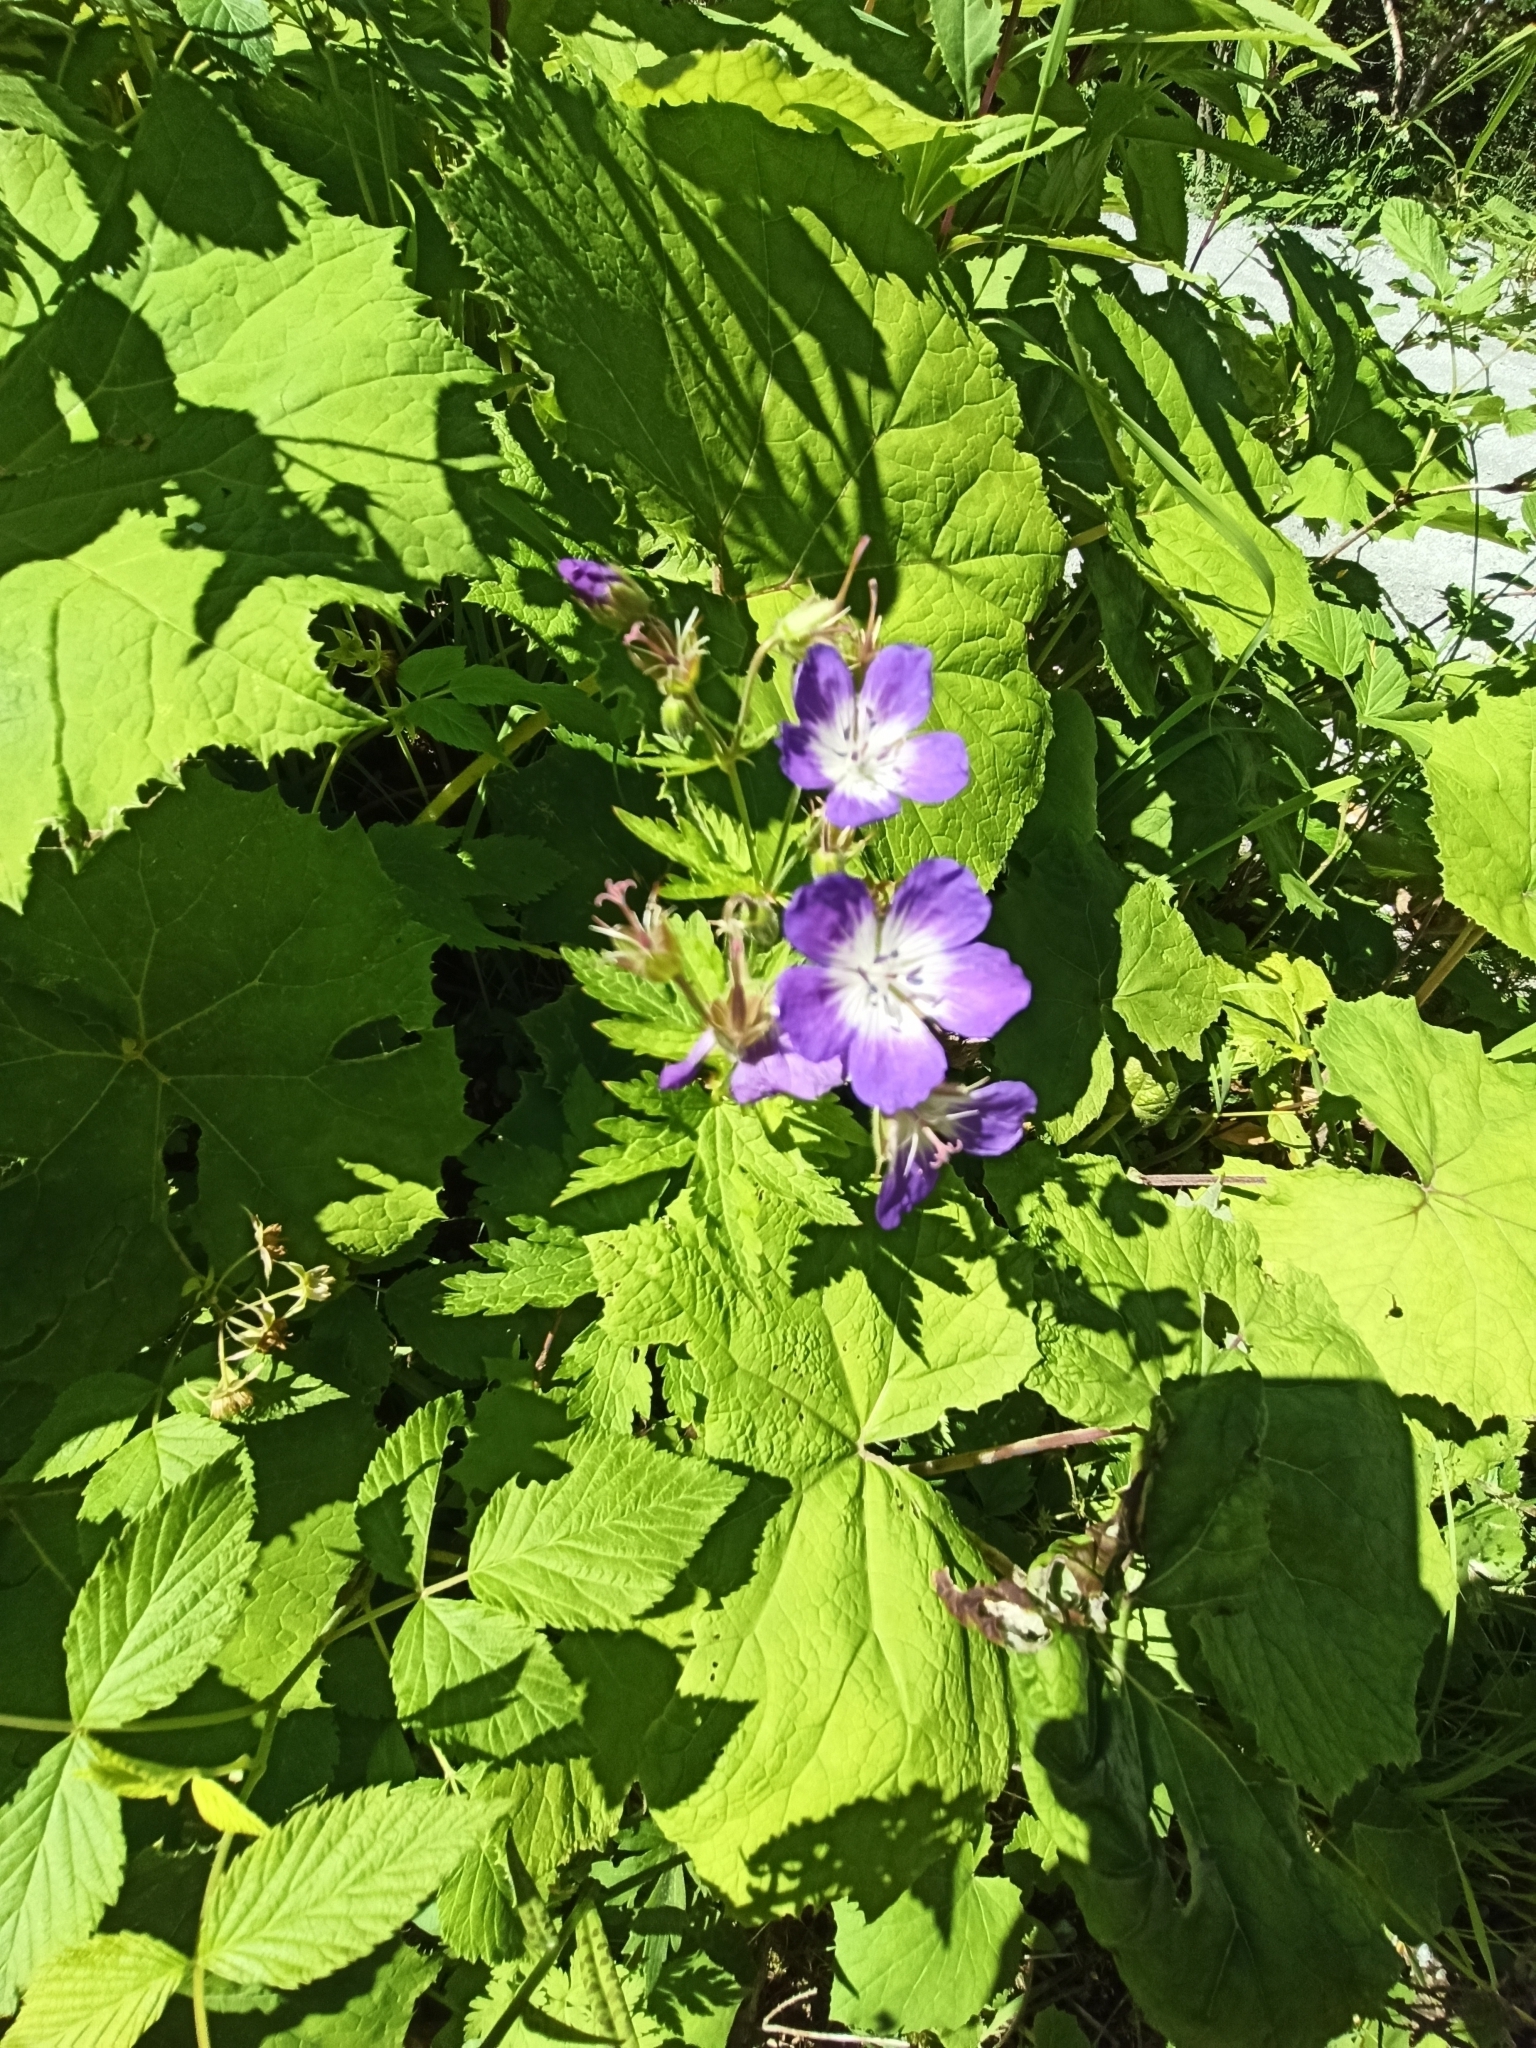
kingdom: Plantae
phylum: Tracheophyta
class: Magnoliopsida
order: Geraniales
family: Geraniaceae
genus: Geranium
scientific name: Geranium sylvaticum
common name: Wood crane's-bill
